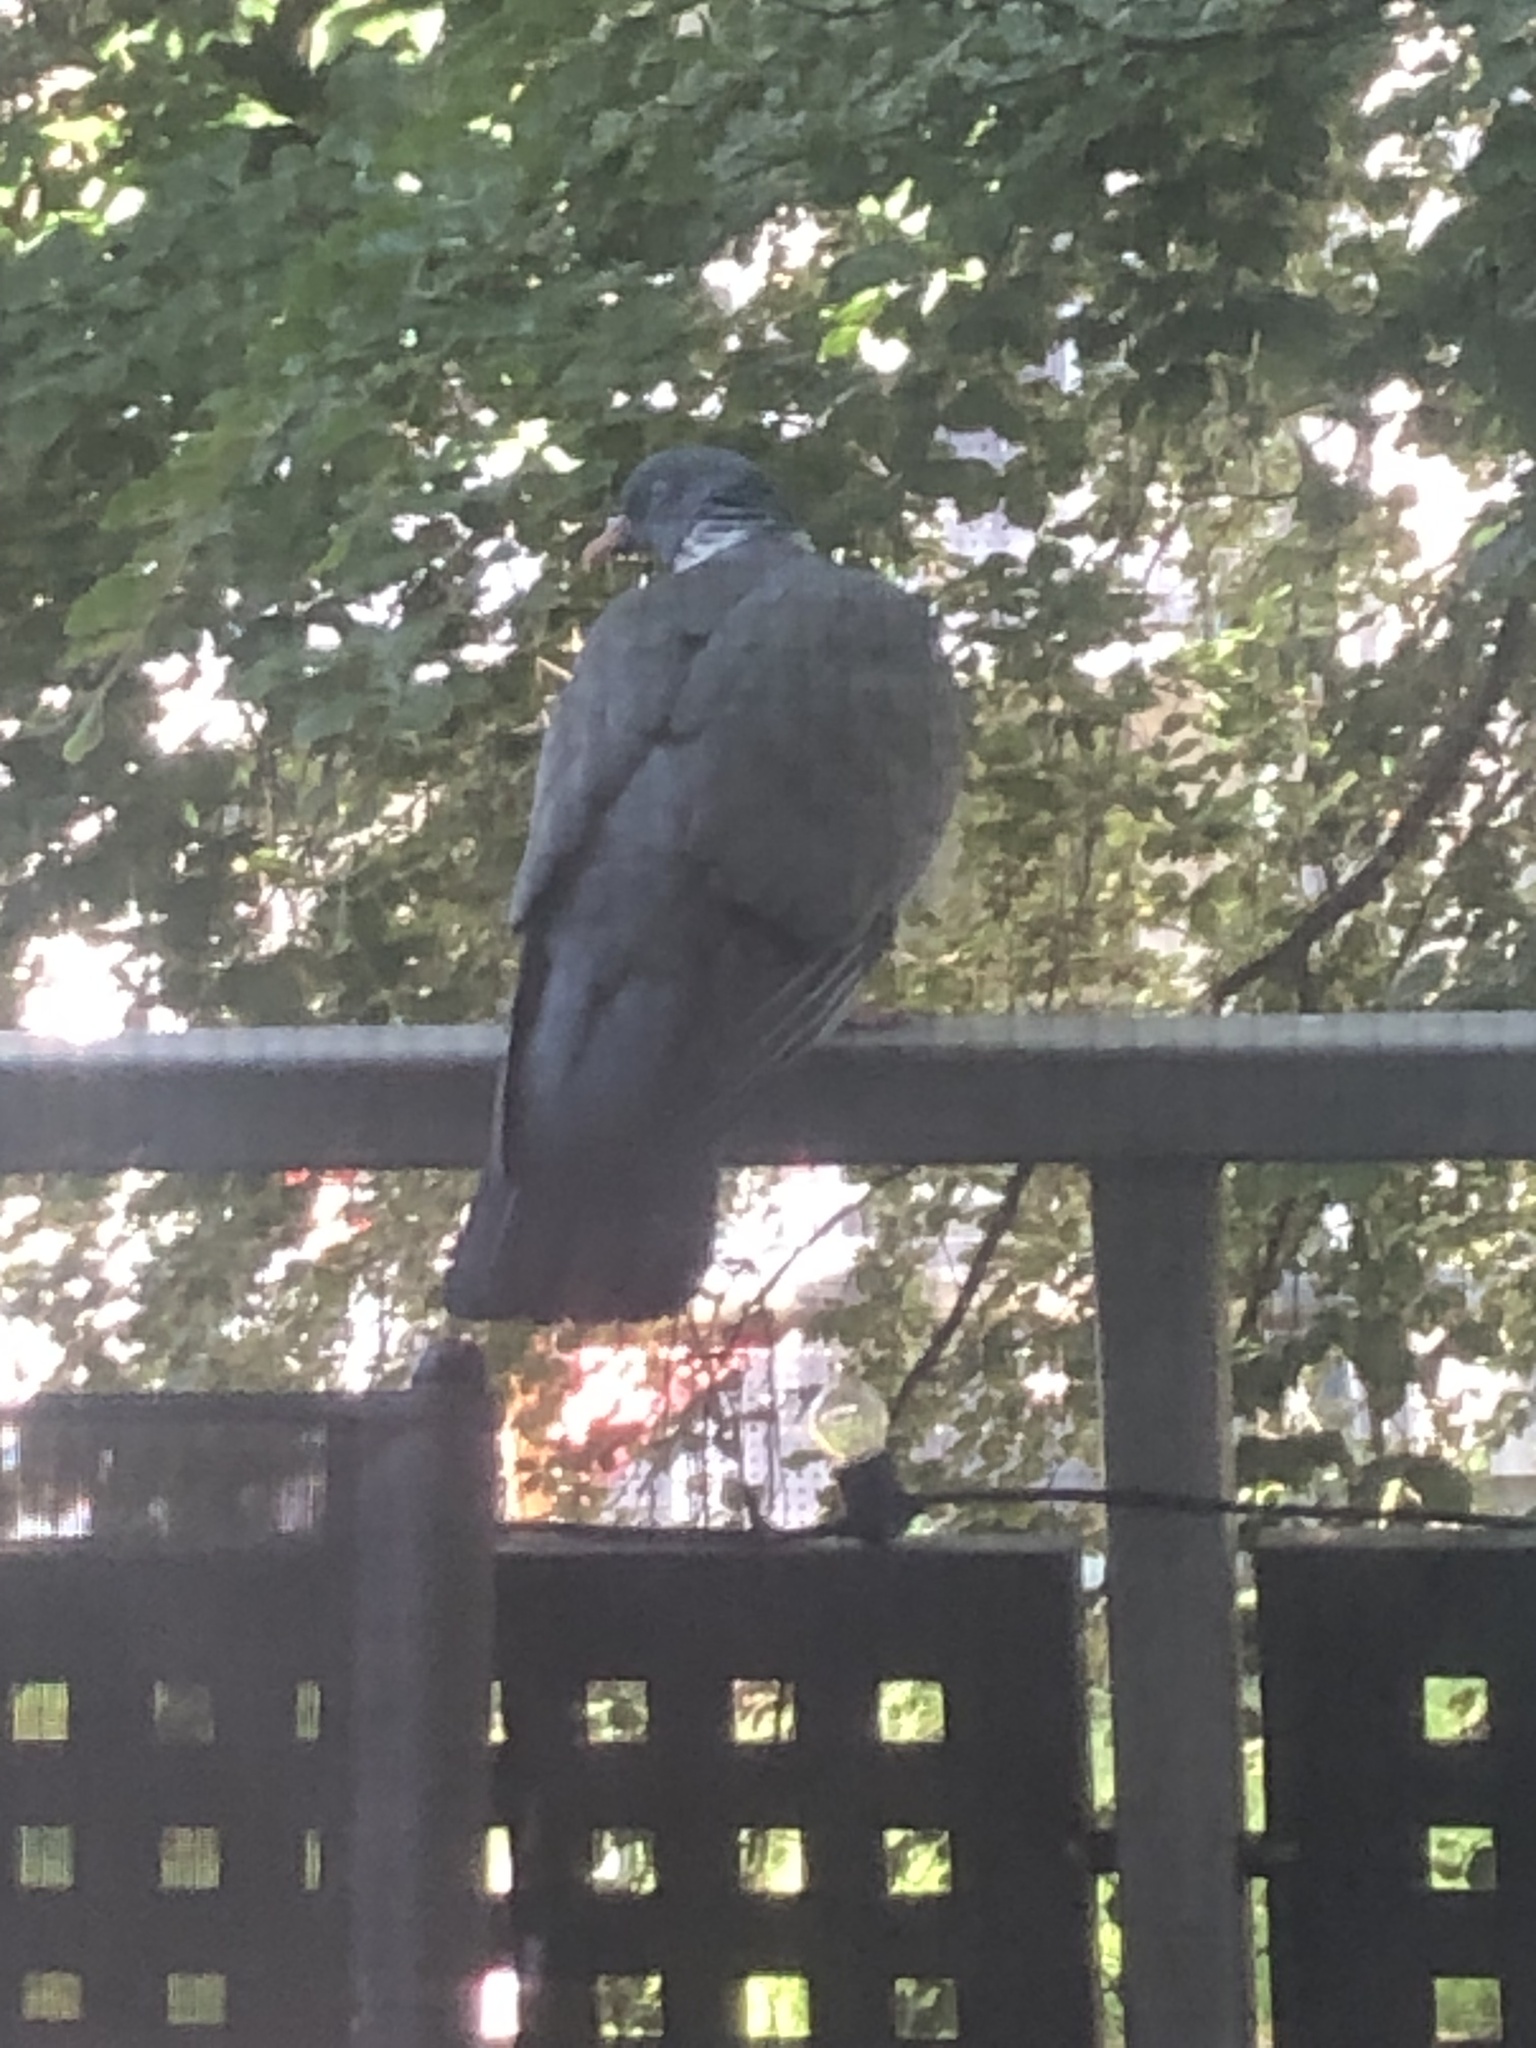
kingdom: Animalia
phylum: Chordata
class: Aves
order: Columbiformes
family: Columbidae
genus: Columba
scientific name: Columba palumbus
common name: Common wood pigeon
